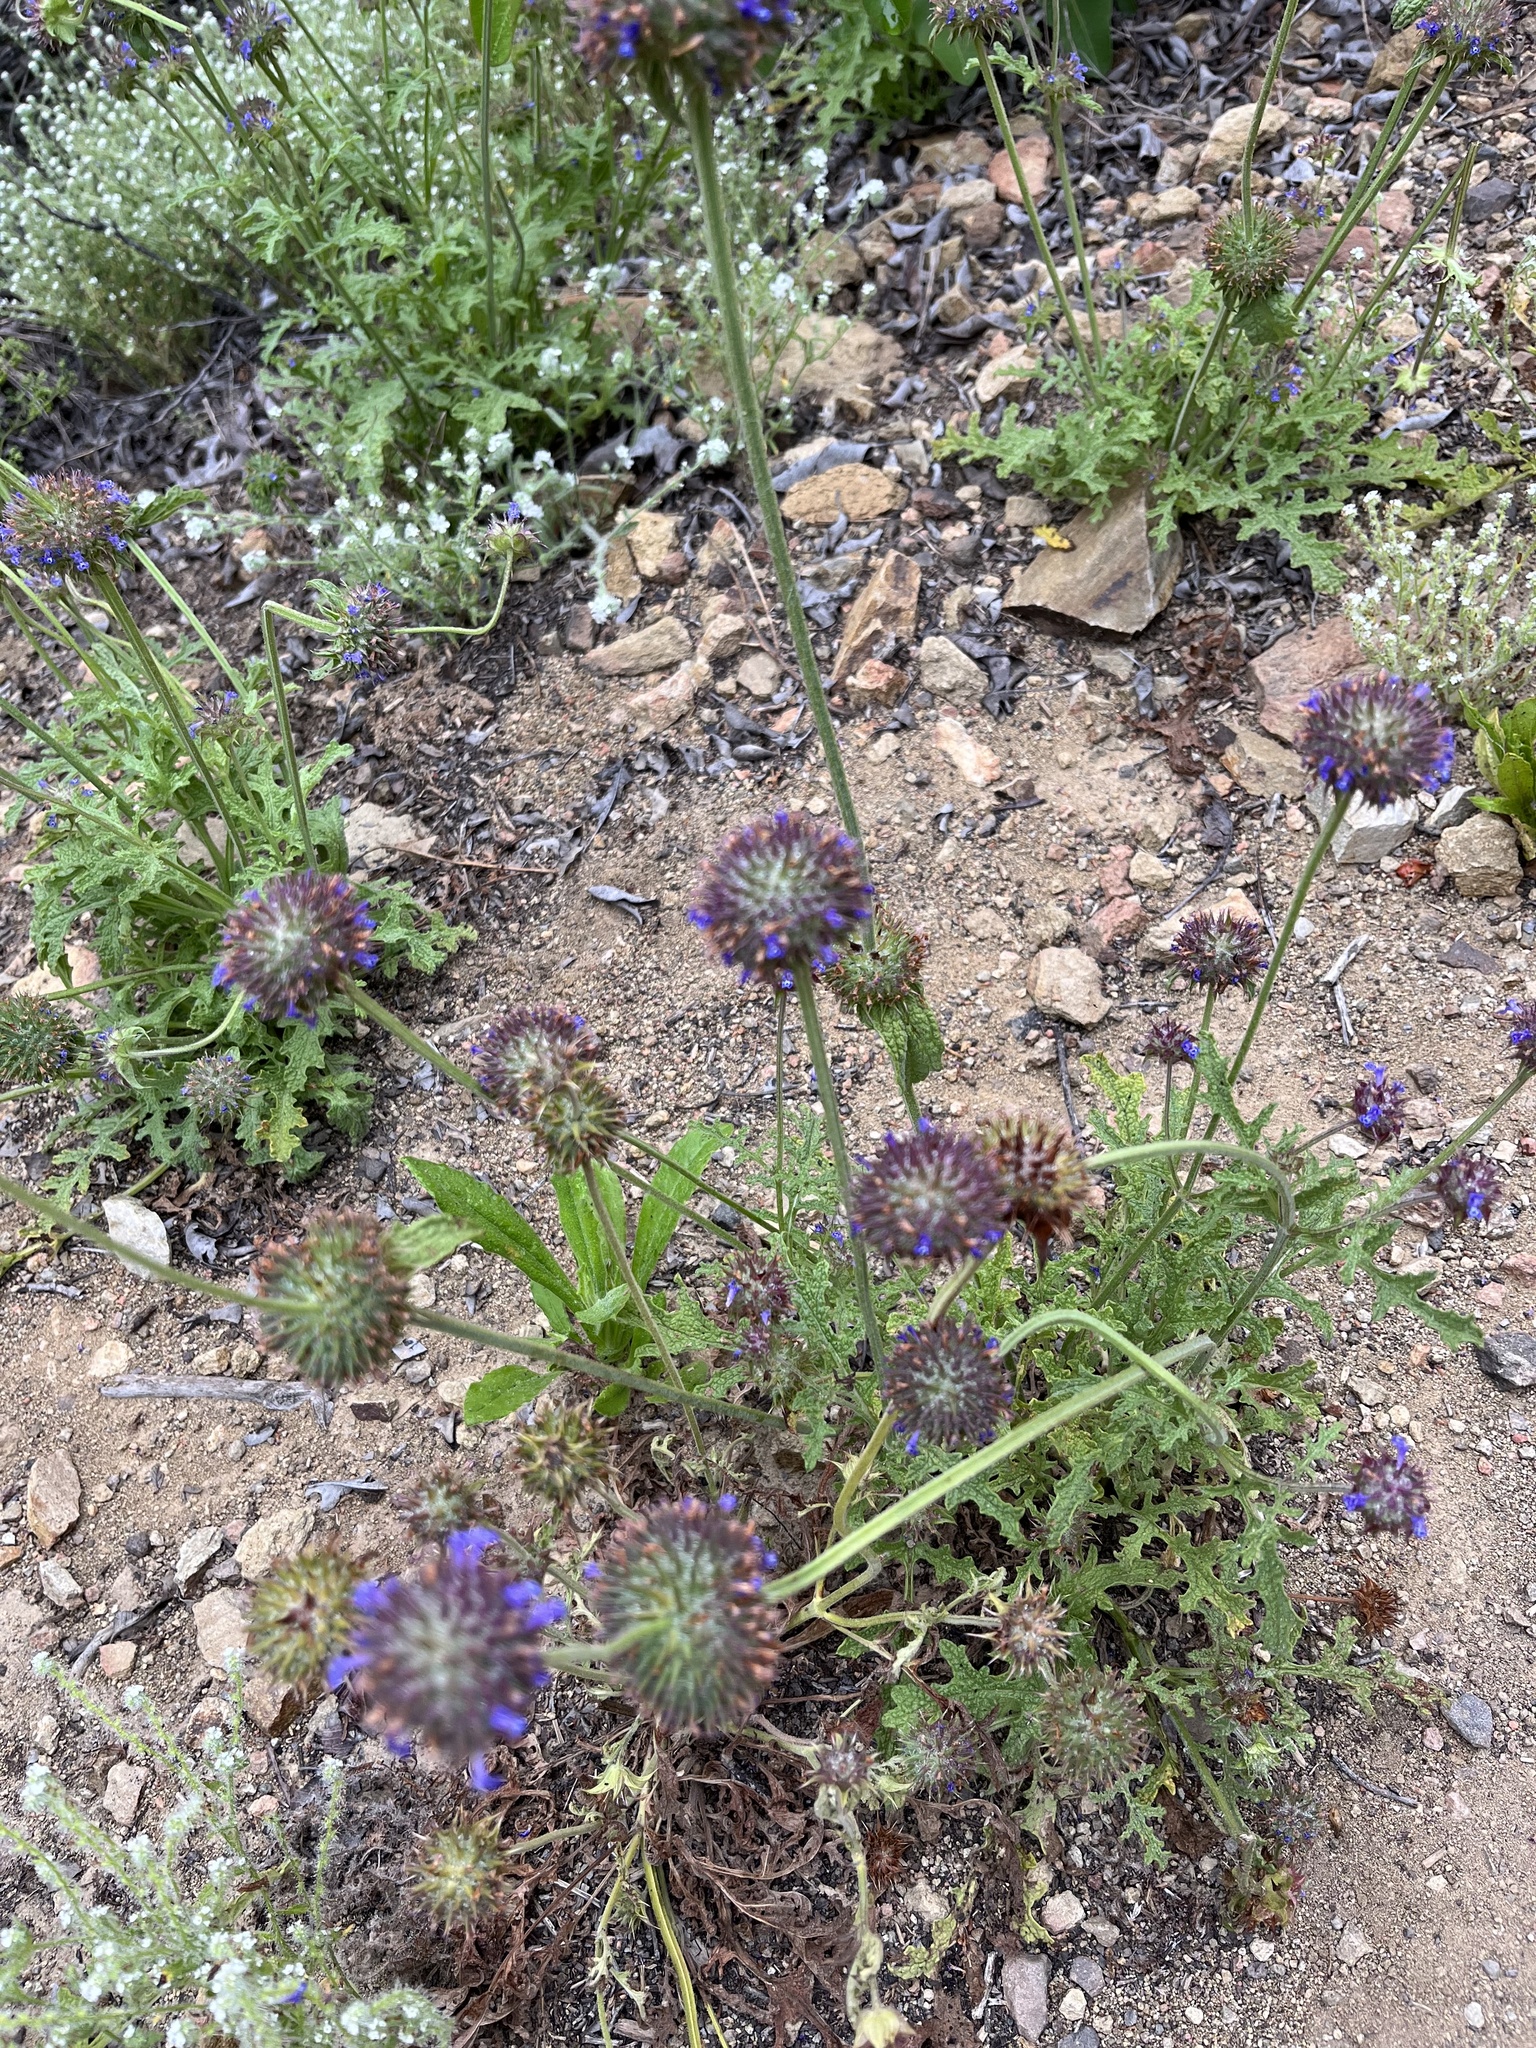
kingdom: Plantae
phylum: Tracheophyta
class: Magnoliopsida
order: Lamiales
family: Lamiaceae
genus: Salvia
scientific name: Salvia columbariae
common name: Chia
